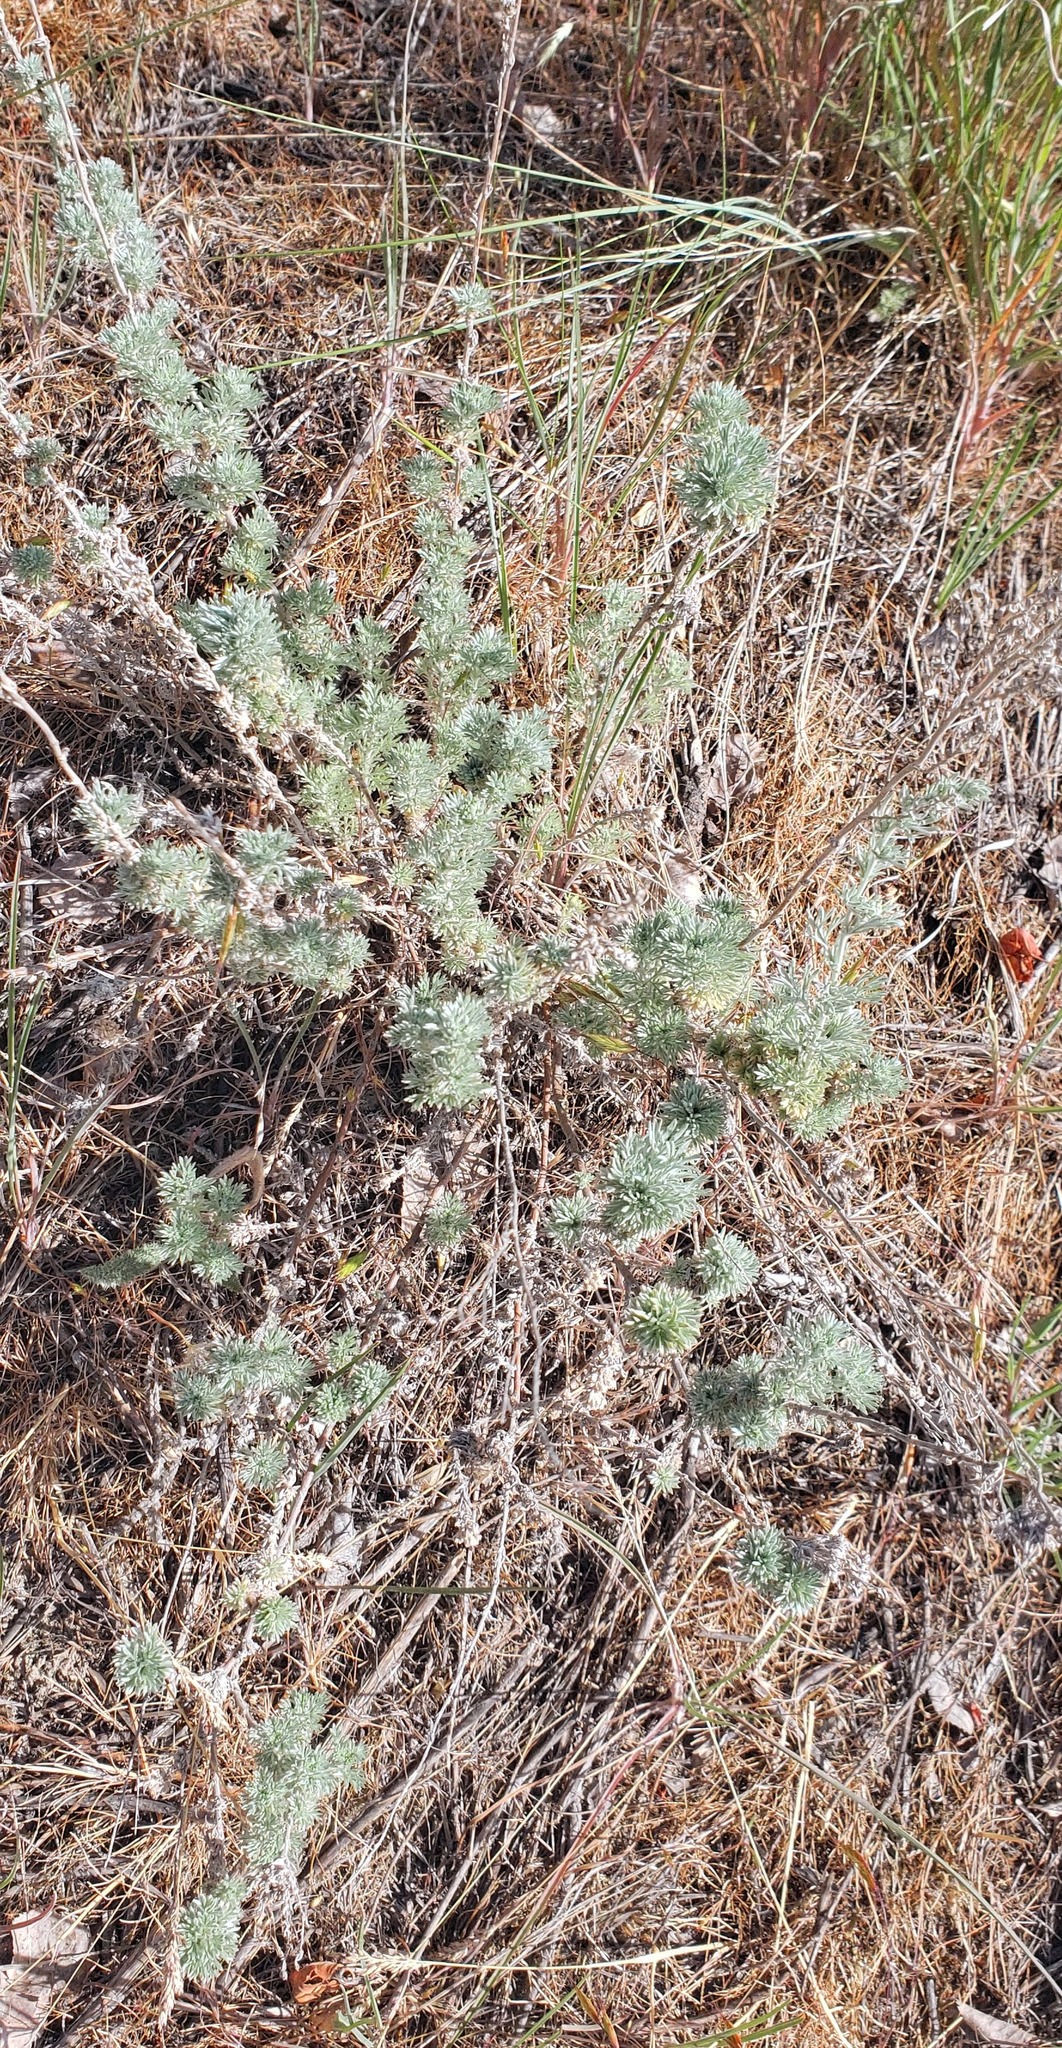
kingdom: Plantae
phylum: Tracheophyta
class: Magnoliopsida
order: Asterales
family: Asteraceae
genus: Artemisia
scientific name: Artemisia frigida
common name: Prairie sagewort
